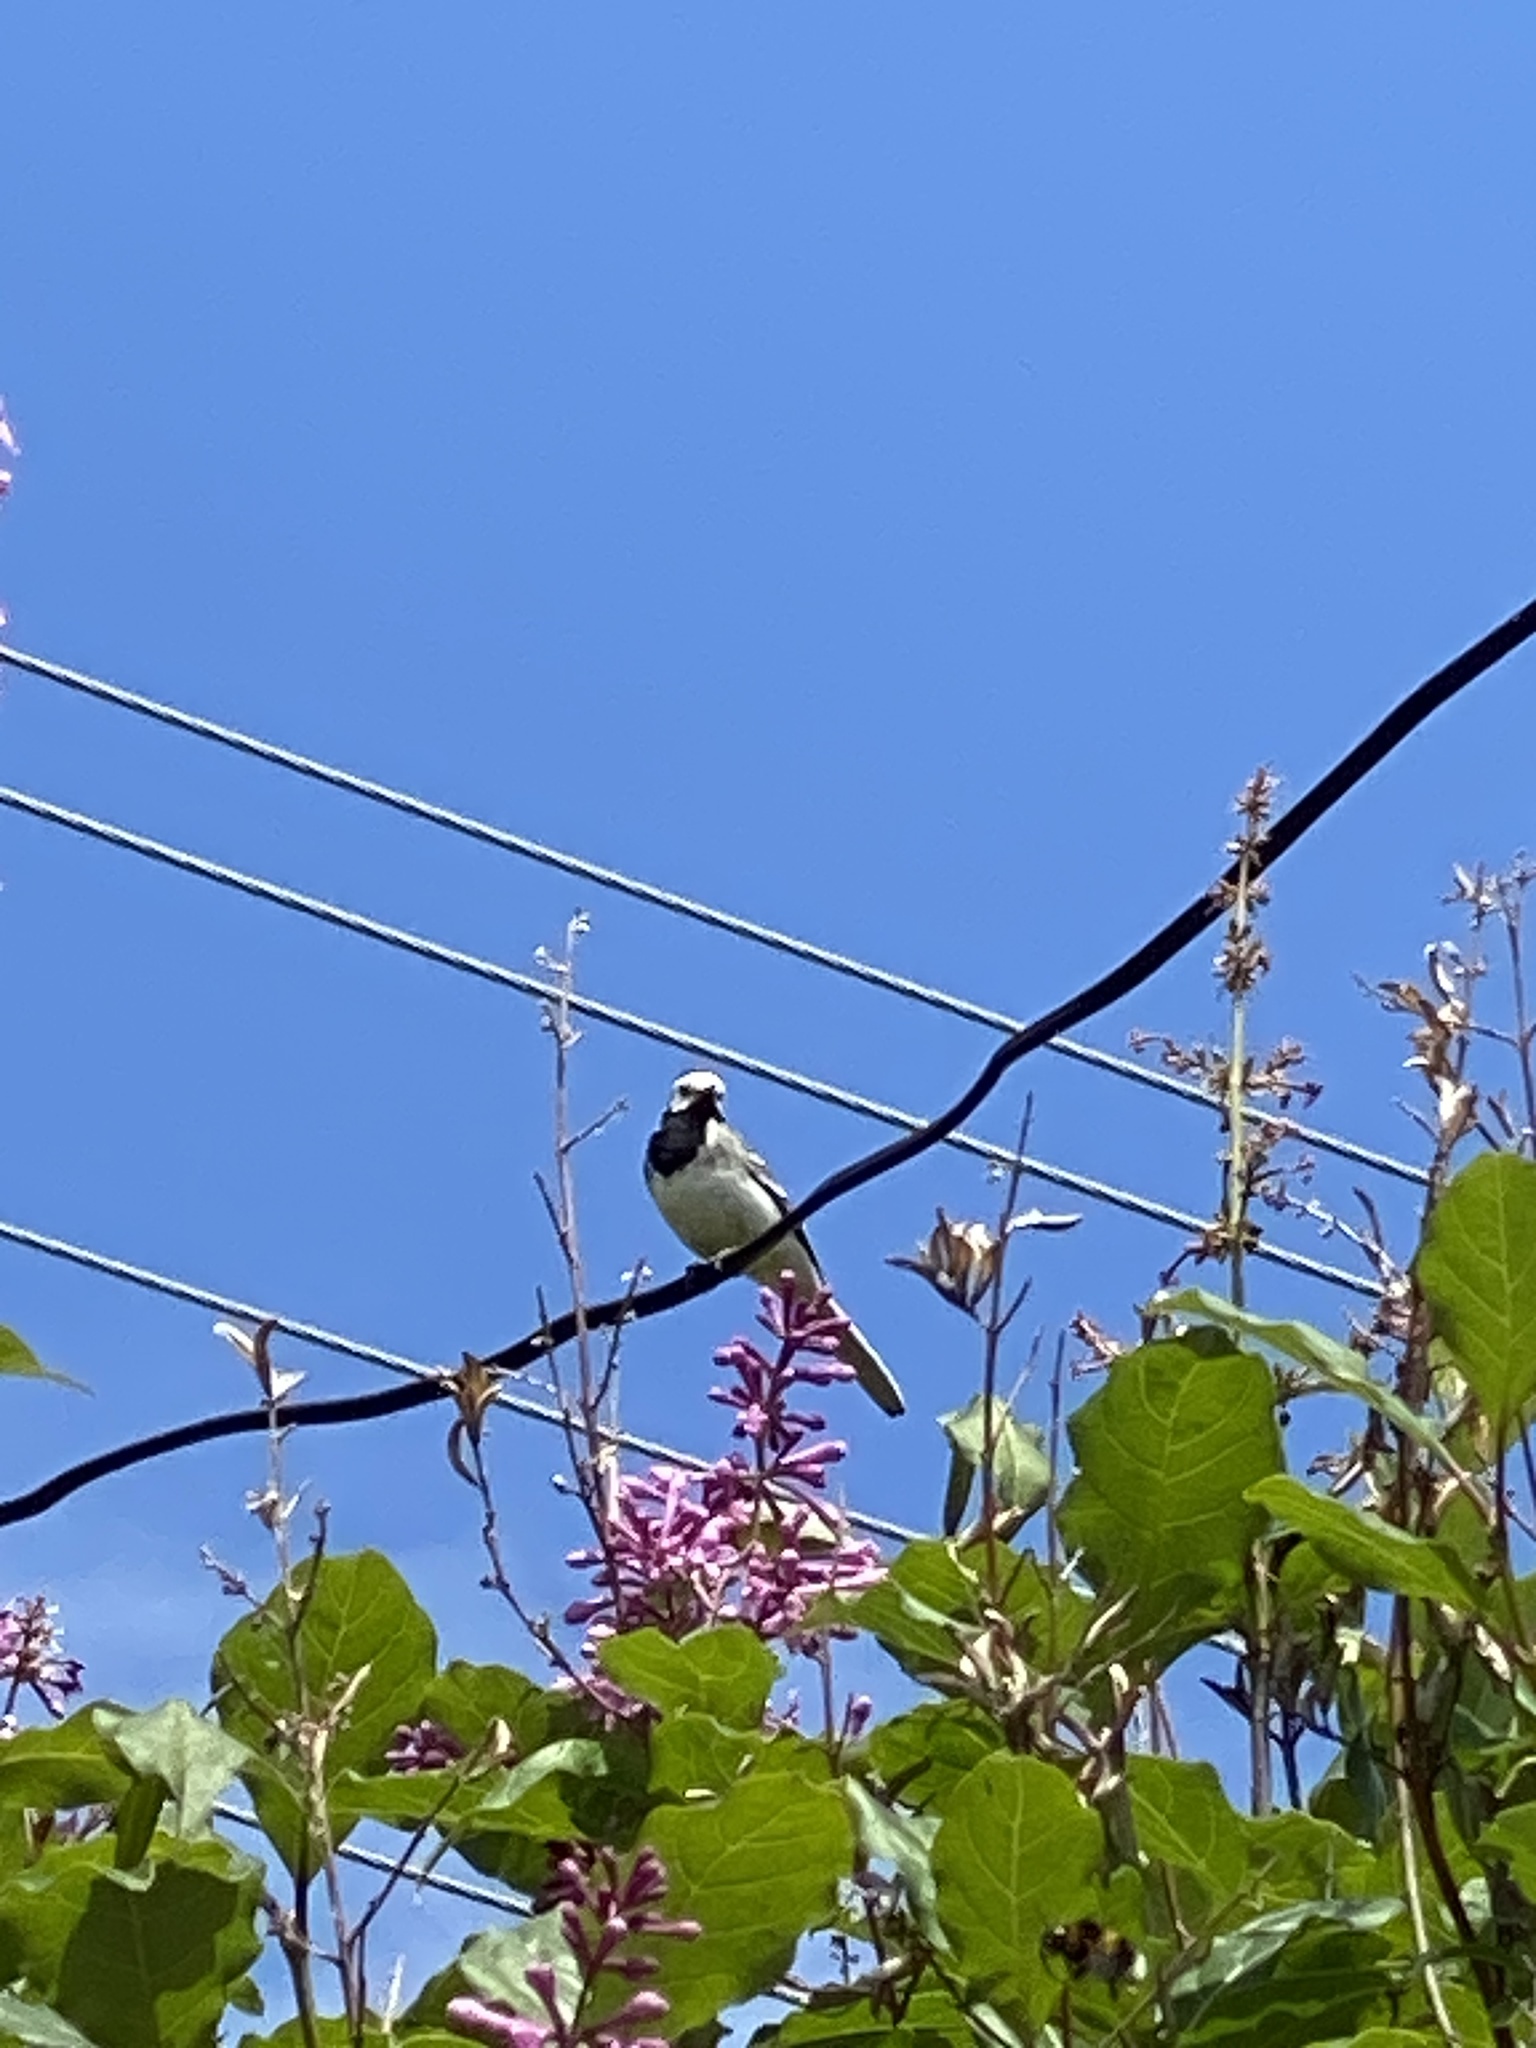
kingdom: Animalia
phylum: Chordata
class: Aves
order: Passeriformes
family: Motacillidae
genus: Motacilla
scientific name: Motacilla alba
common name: White wagtail
